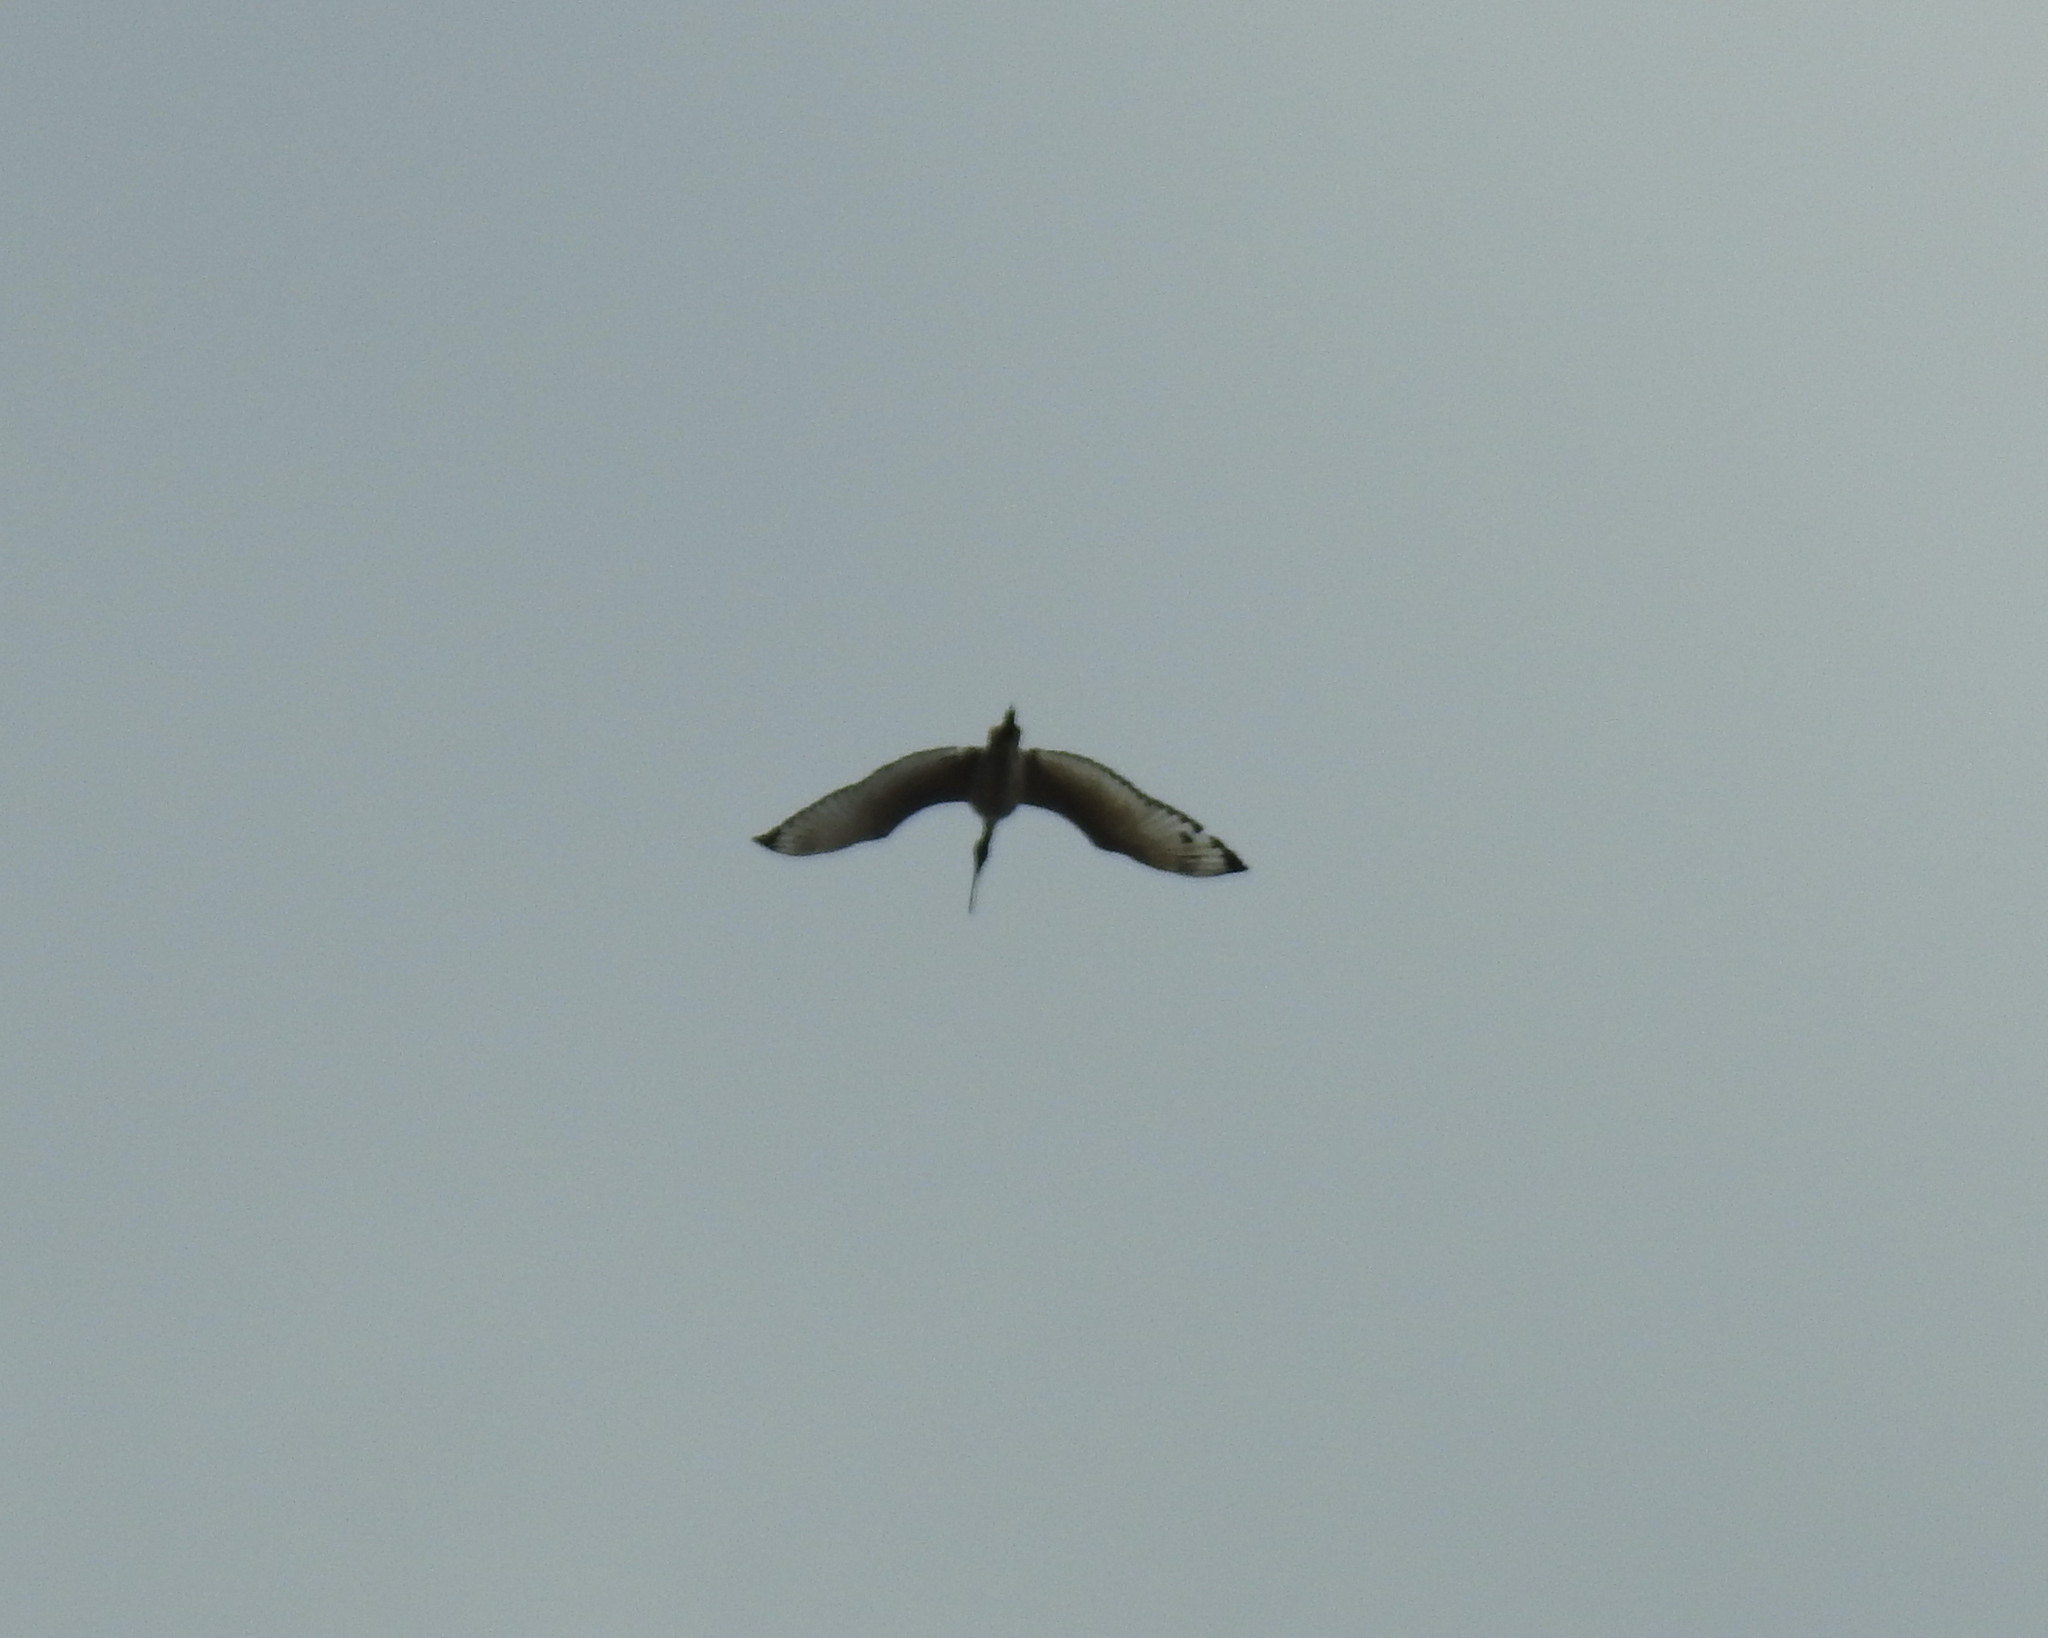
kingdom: Animalia
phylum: Chordata
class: Aves
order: Pelecaniformes
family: Threskiornithidae
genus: Threskiornis
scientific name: Threskiornis aethiopicus
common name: Sacred ibis
